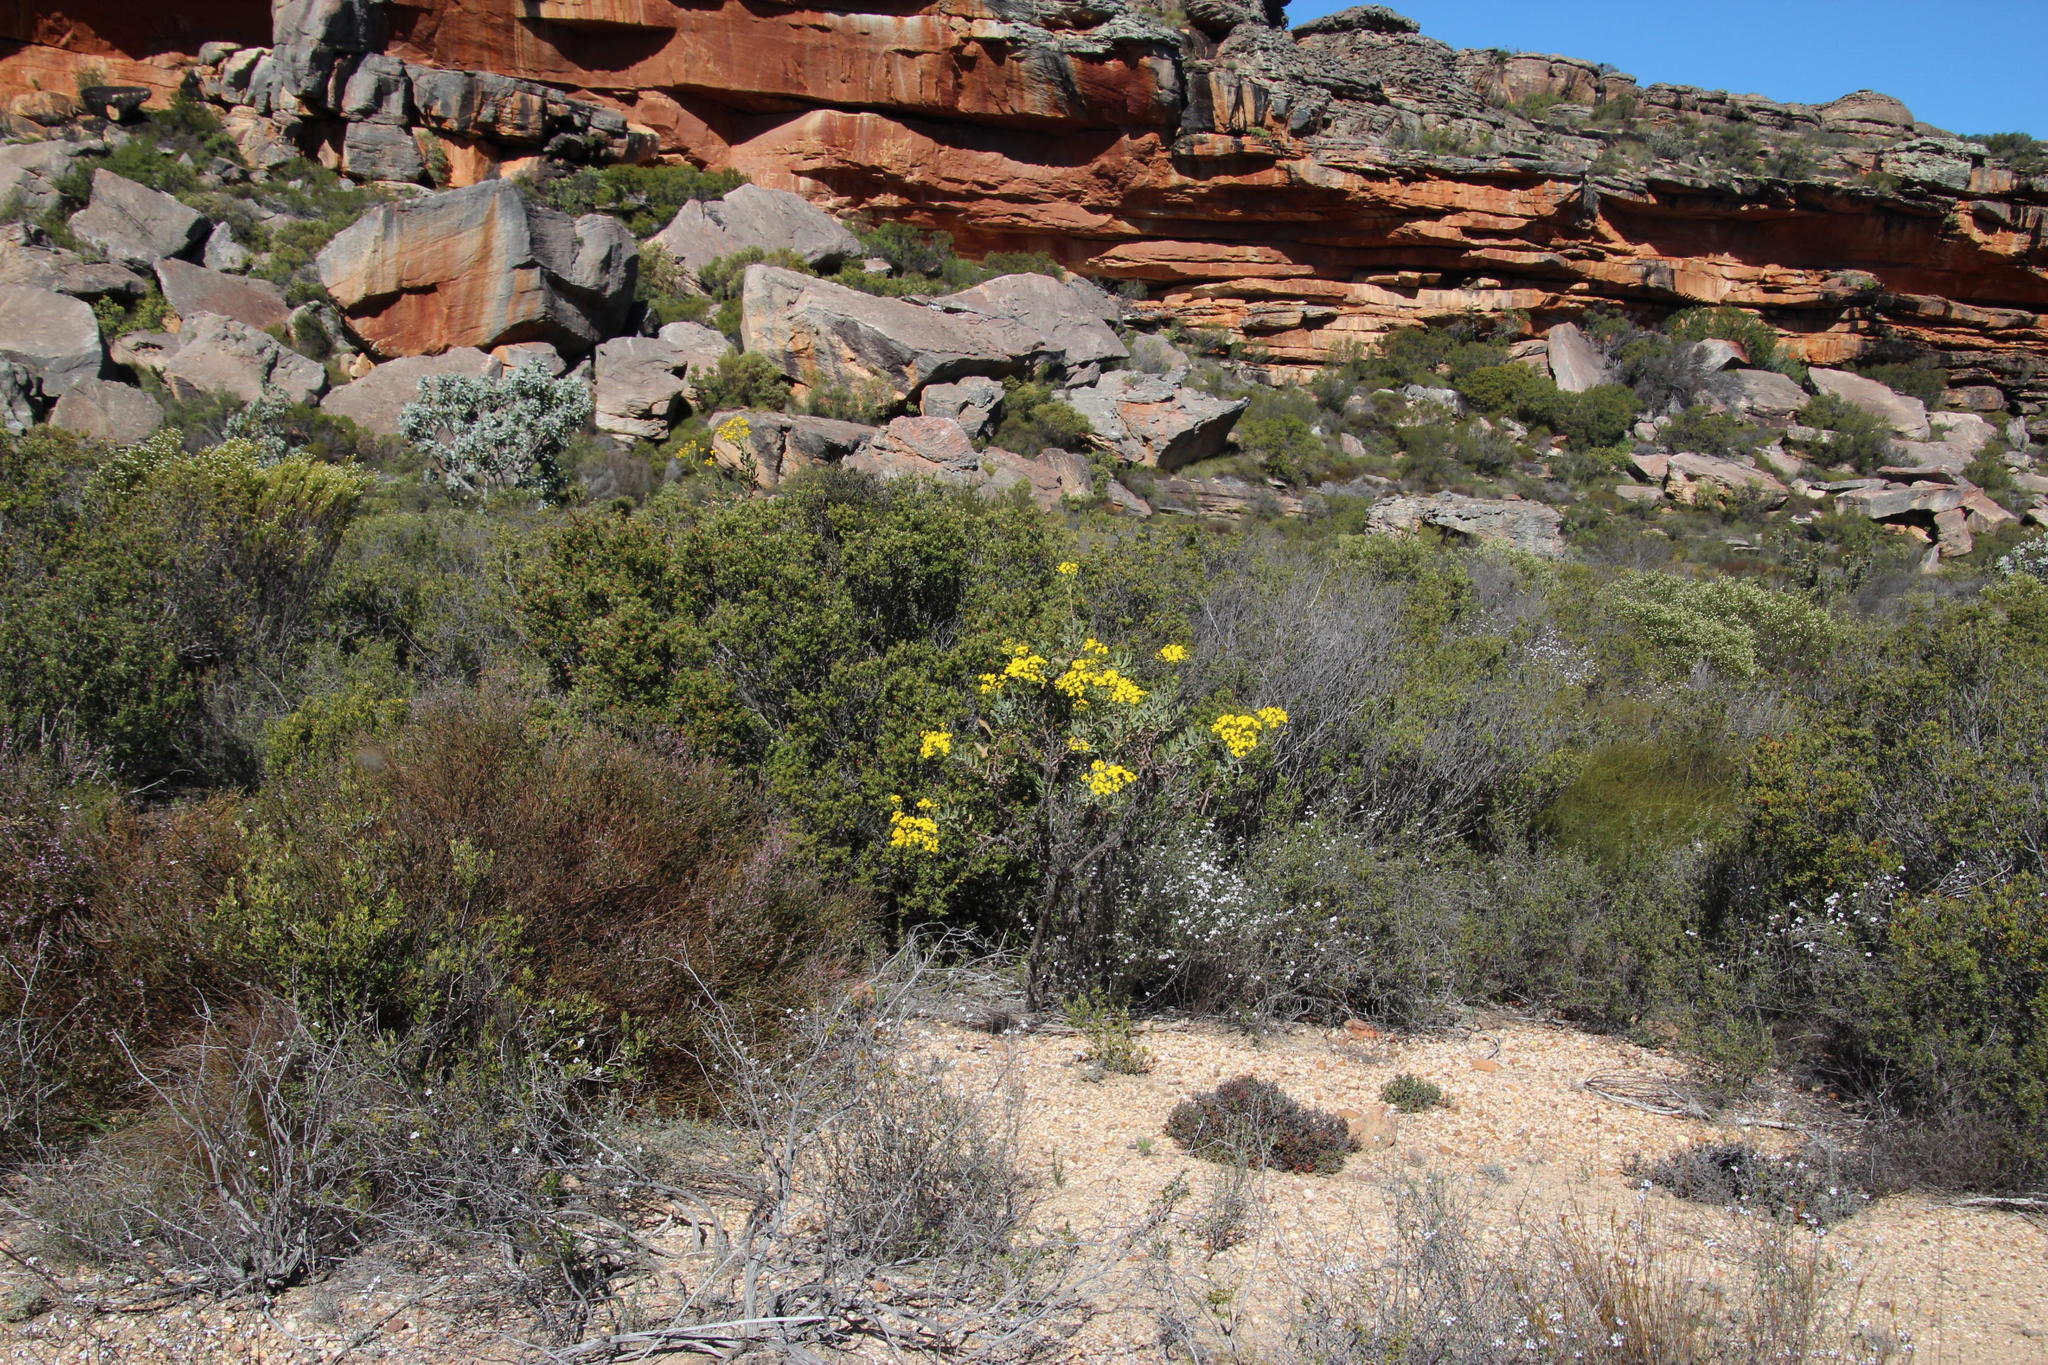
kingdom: Plantae
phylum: Tracheophyta
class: Magnoliopsida
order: Asterales
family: Asteraceae
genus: Othonna
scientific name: Othonna parviflora
